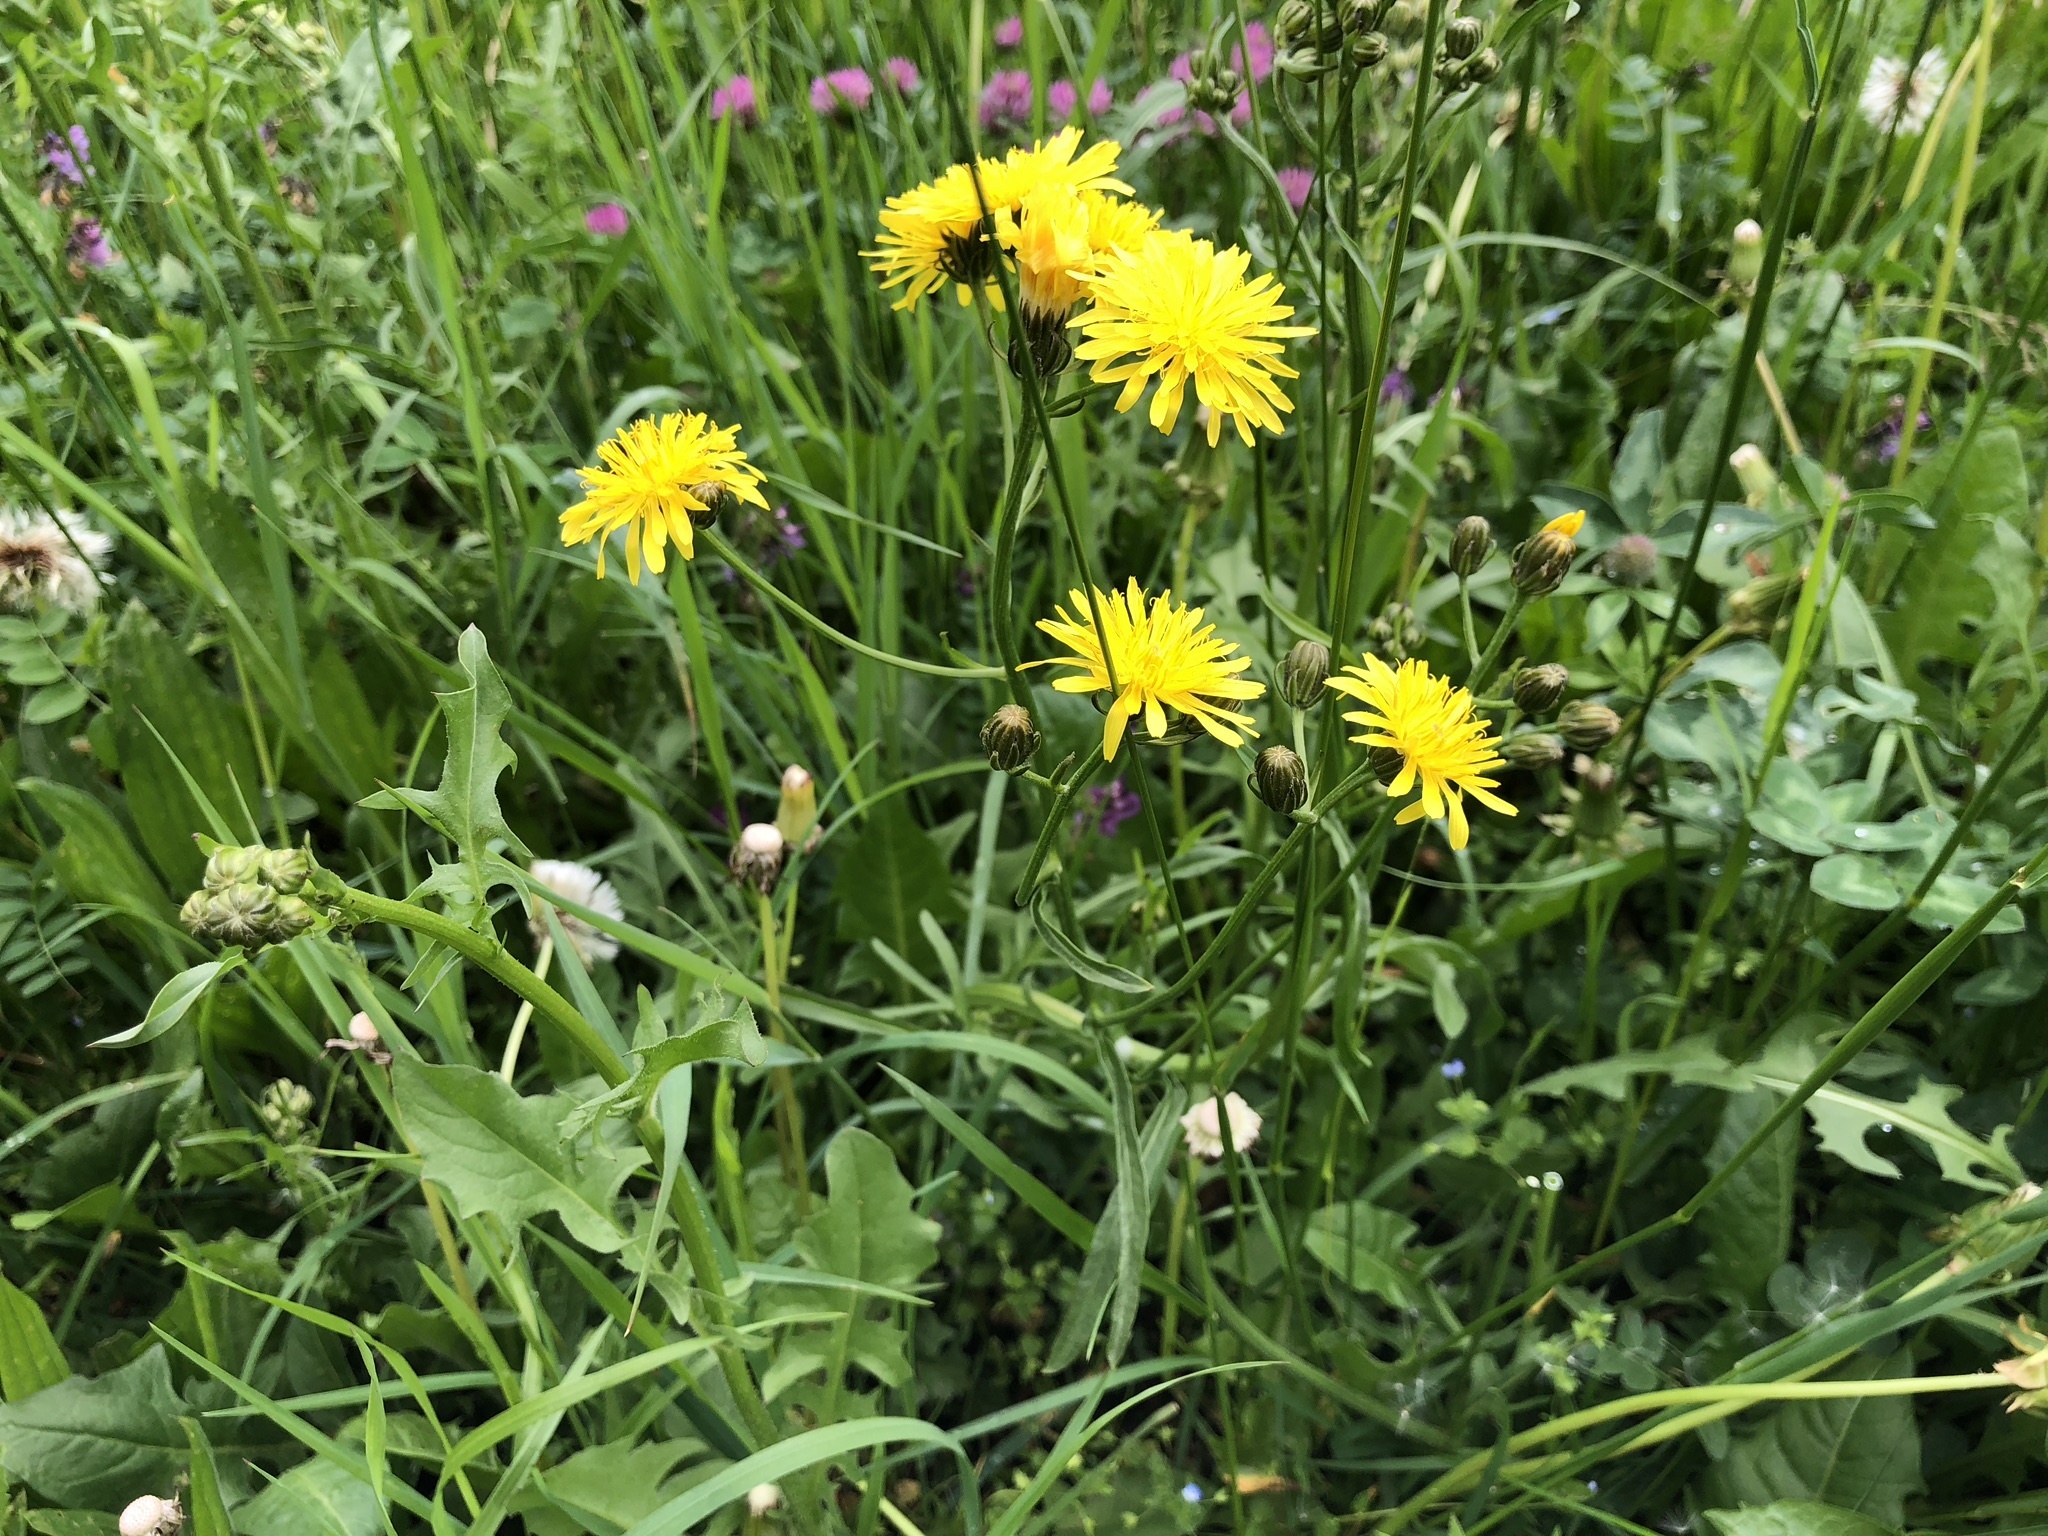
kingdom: Plantae
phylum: Tracheophyta
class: Magnoliopsida
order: Asterales
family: Asteraceae
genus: Crepis
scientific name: Crepis biennis
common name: Rough hawk's-beard
